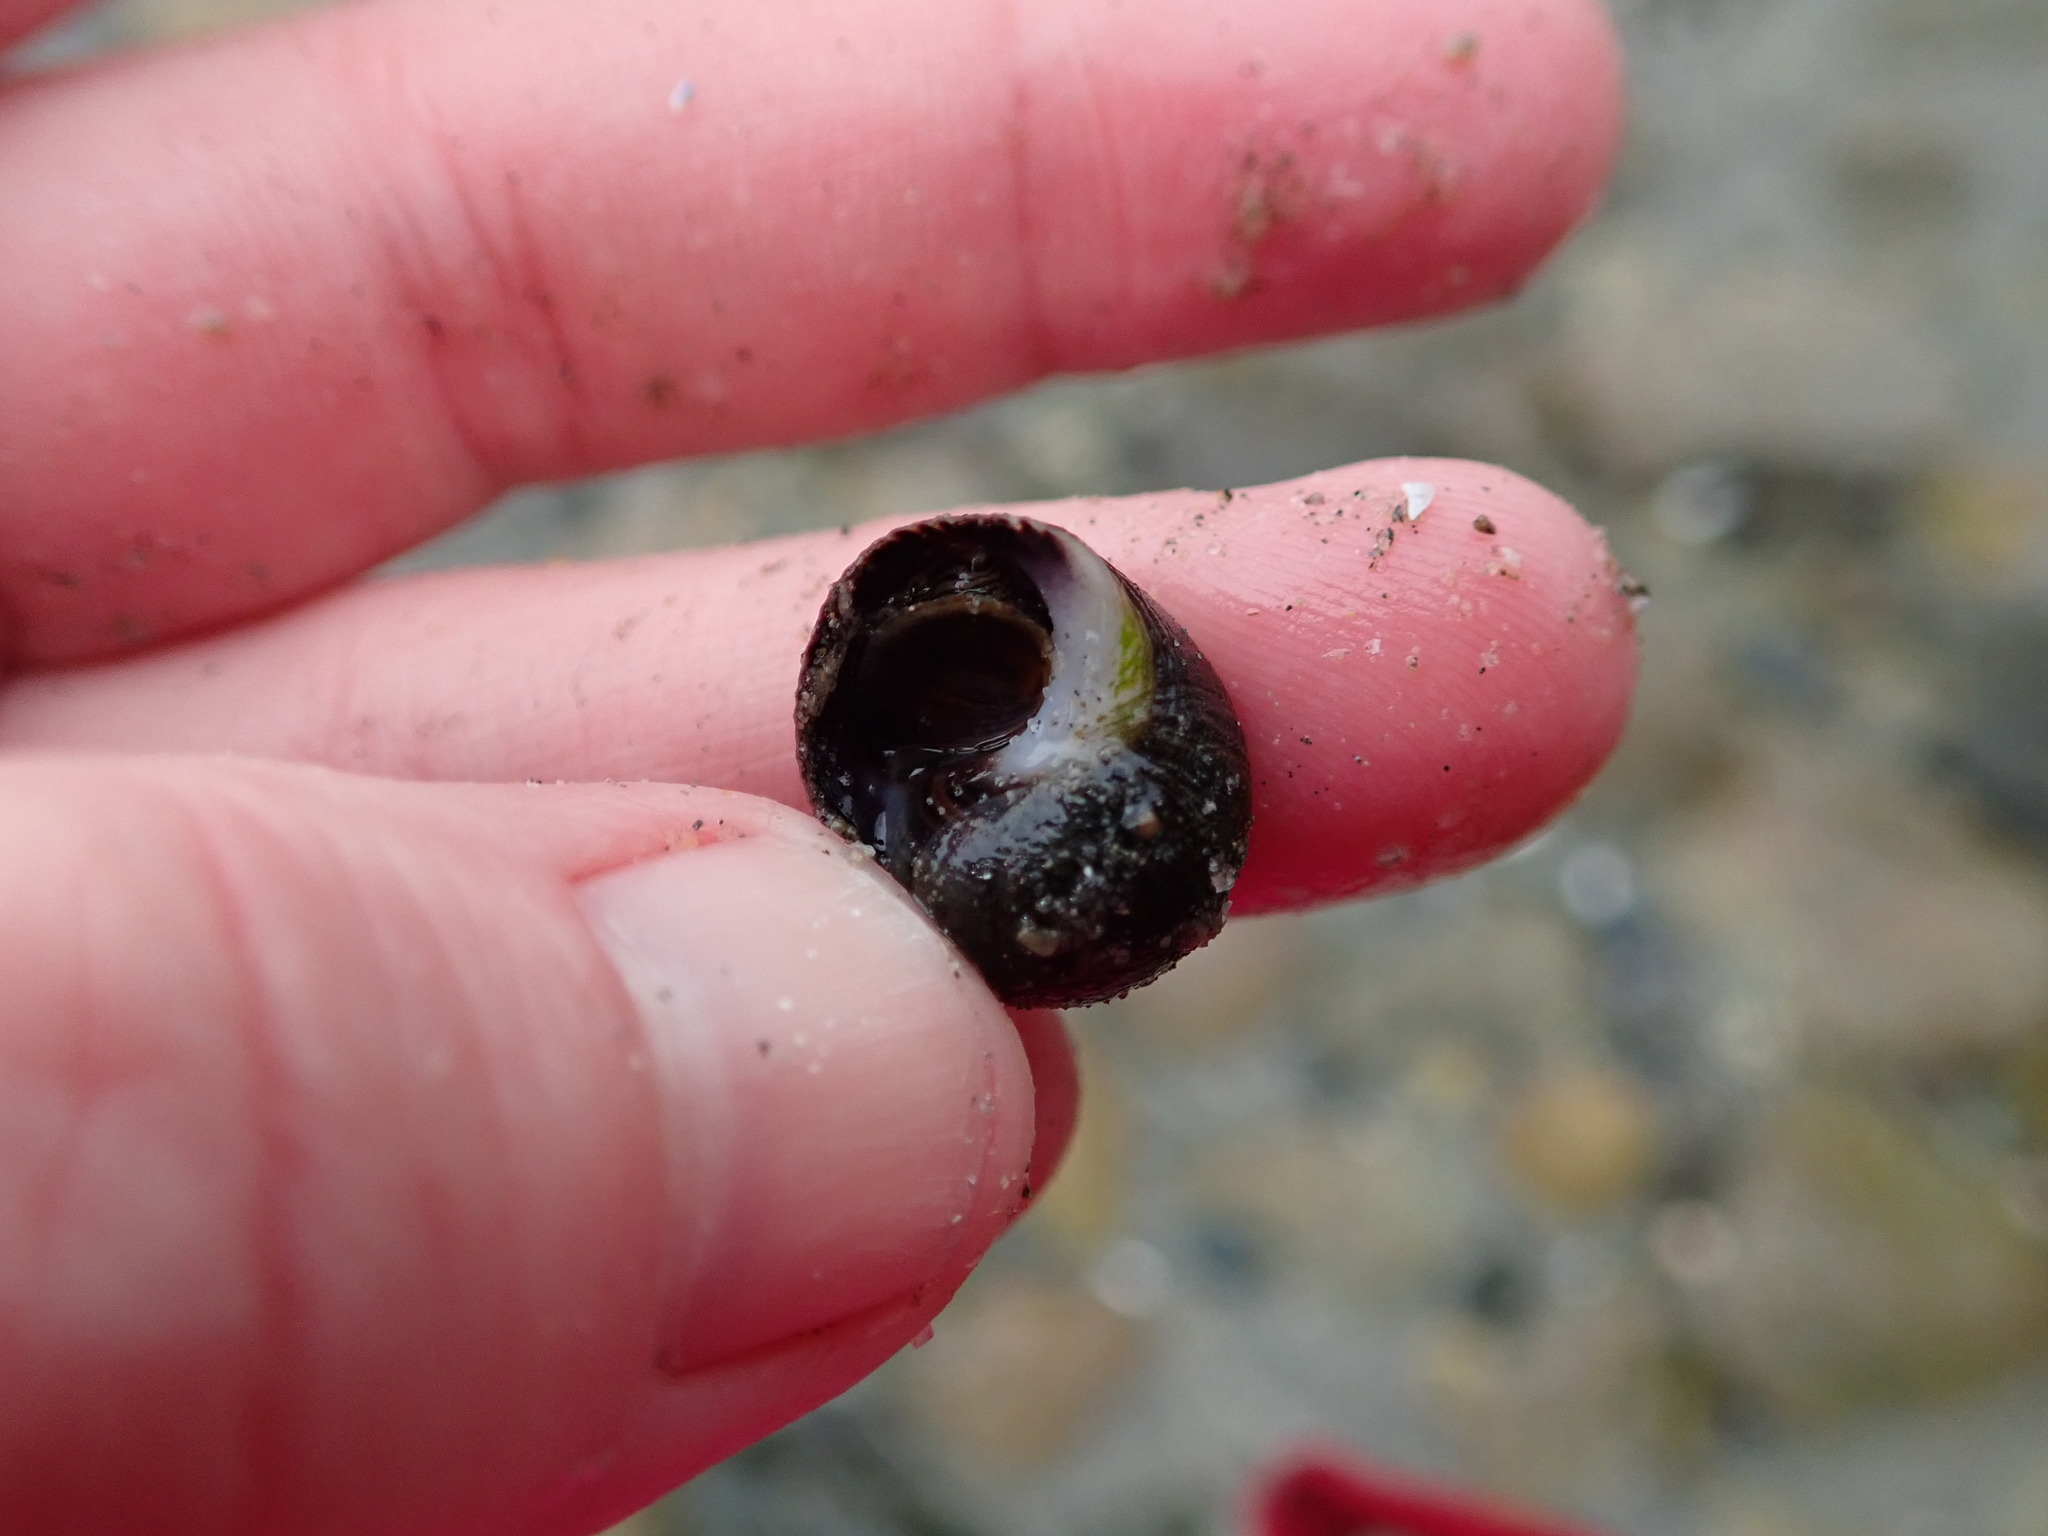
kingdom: Animalia
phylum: Mollusca
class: Gastropoda
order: Littorinimorpha
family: Littorinidae
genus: Littorina
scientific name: Littorina littorea
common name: Common periwinkle
